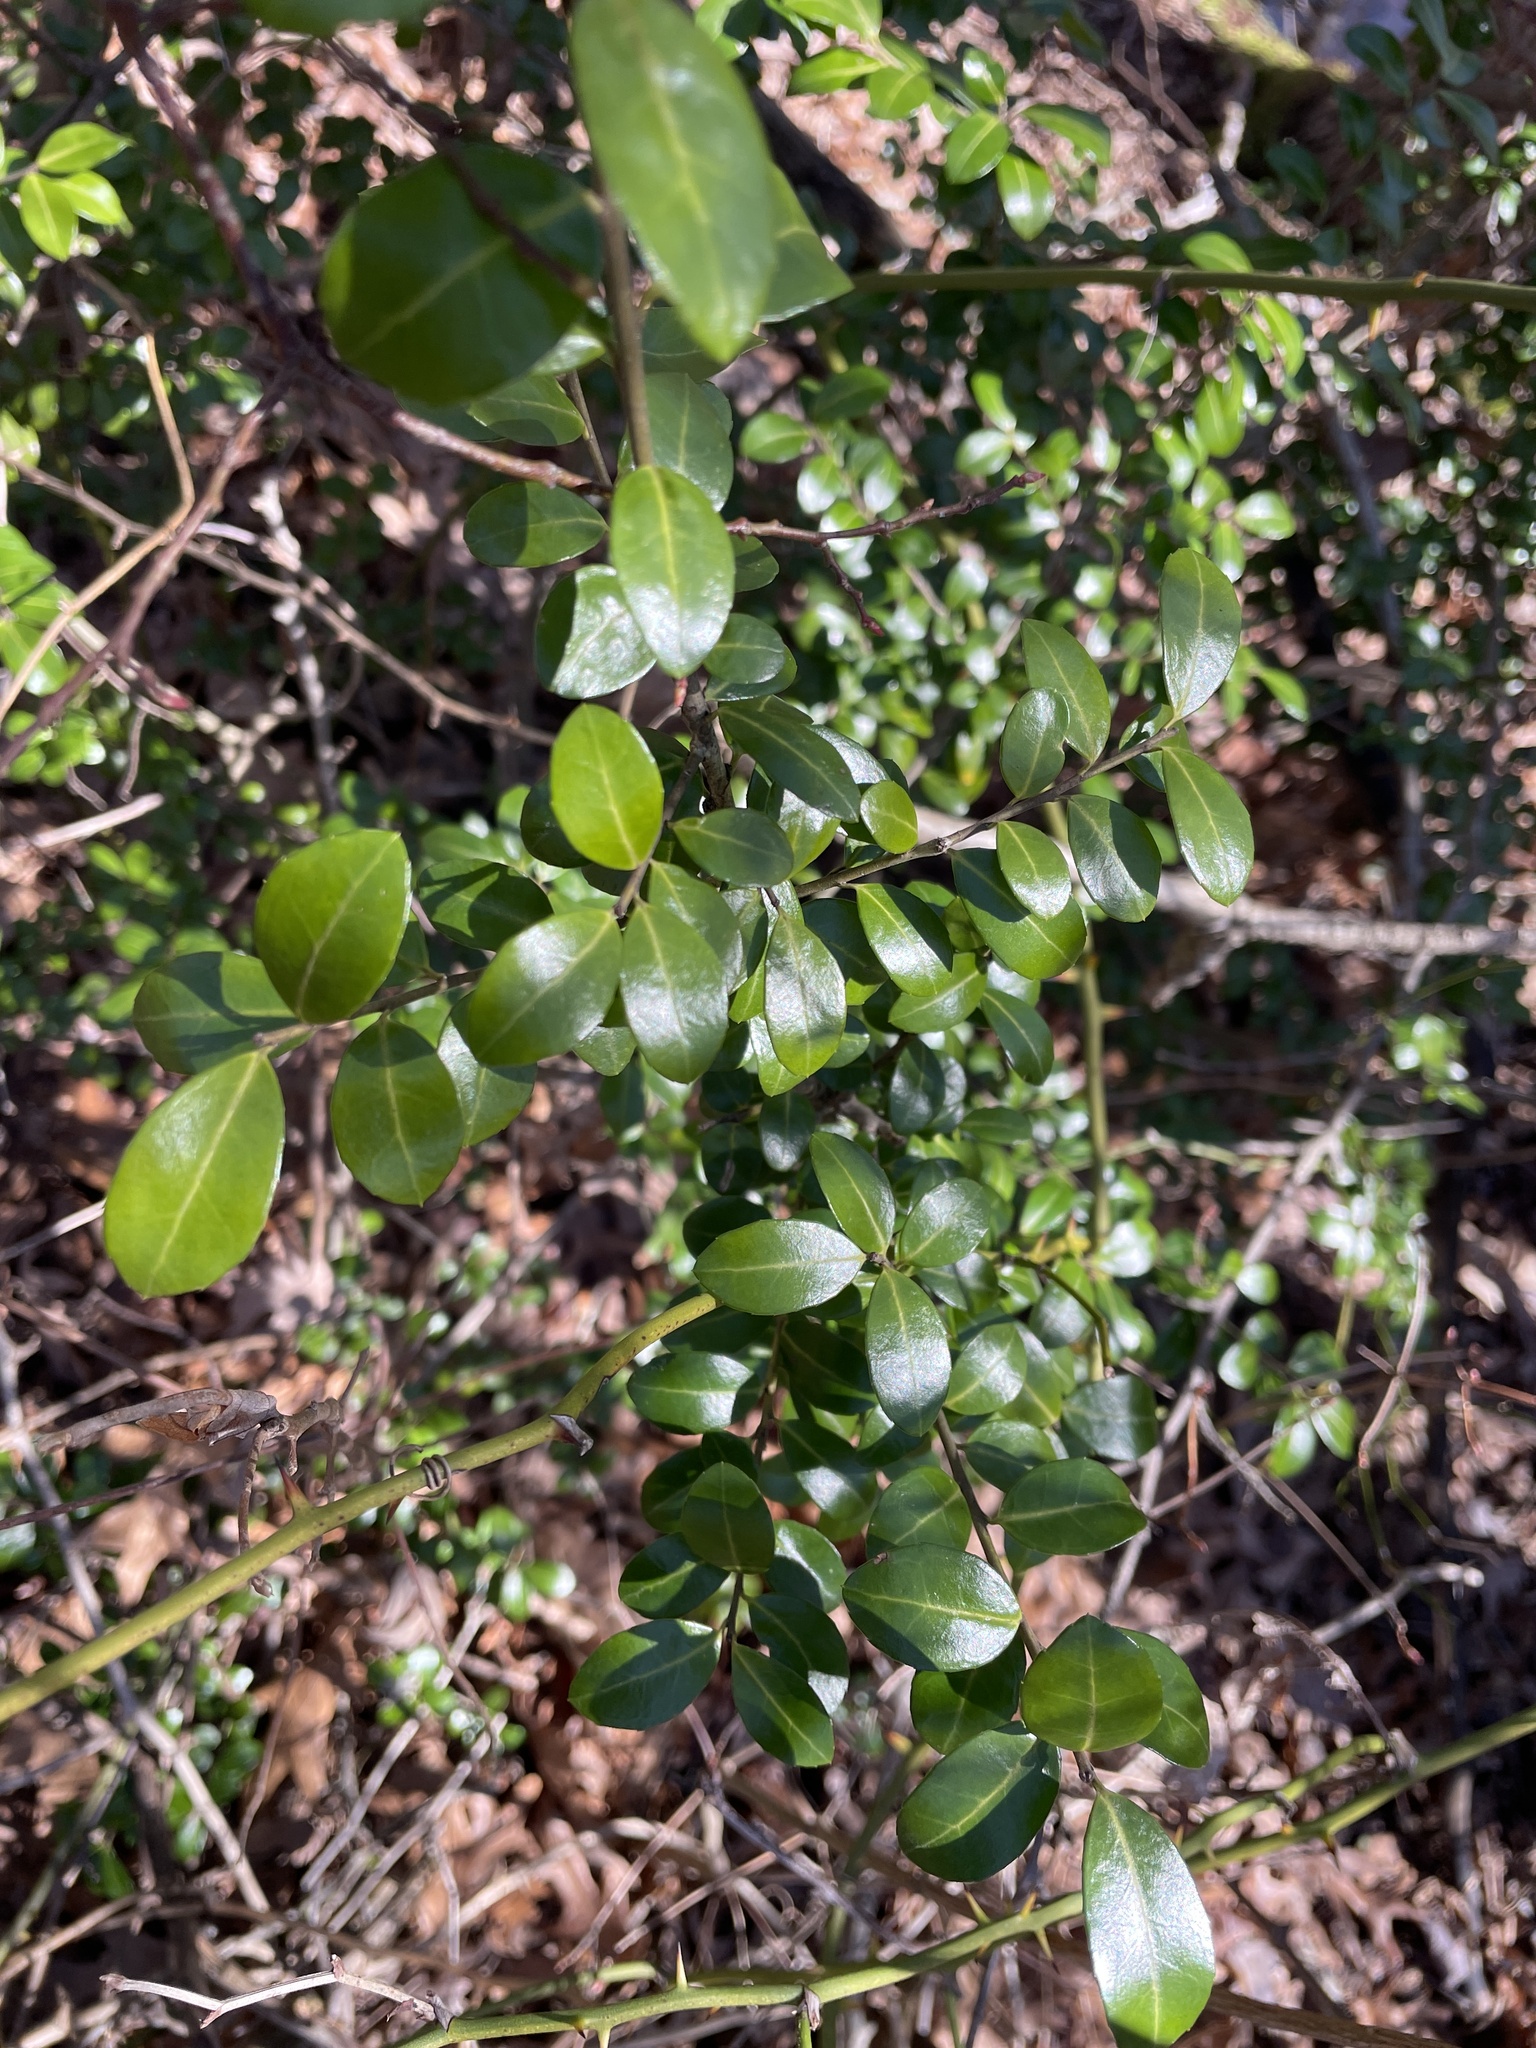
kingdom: Plantae
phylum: Tracheophyta
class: Magnoliopsida
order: Aquifoliales
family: Aquifoliaceae
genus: Ilex
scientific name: Ilex crenata
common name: Japanese holly
